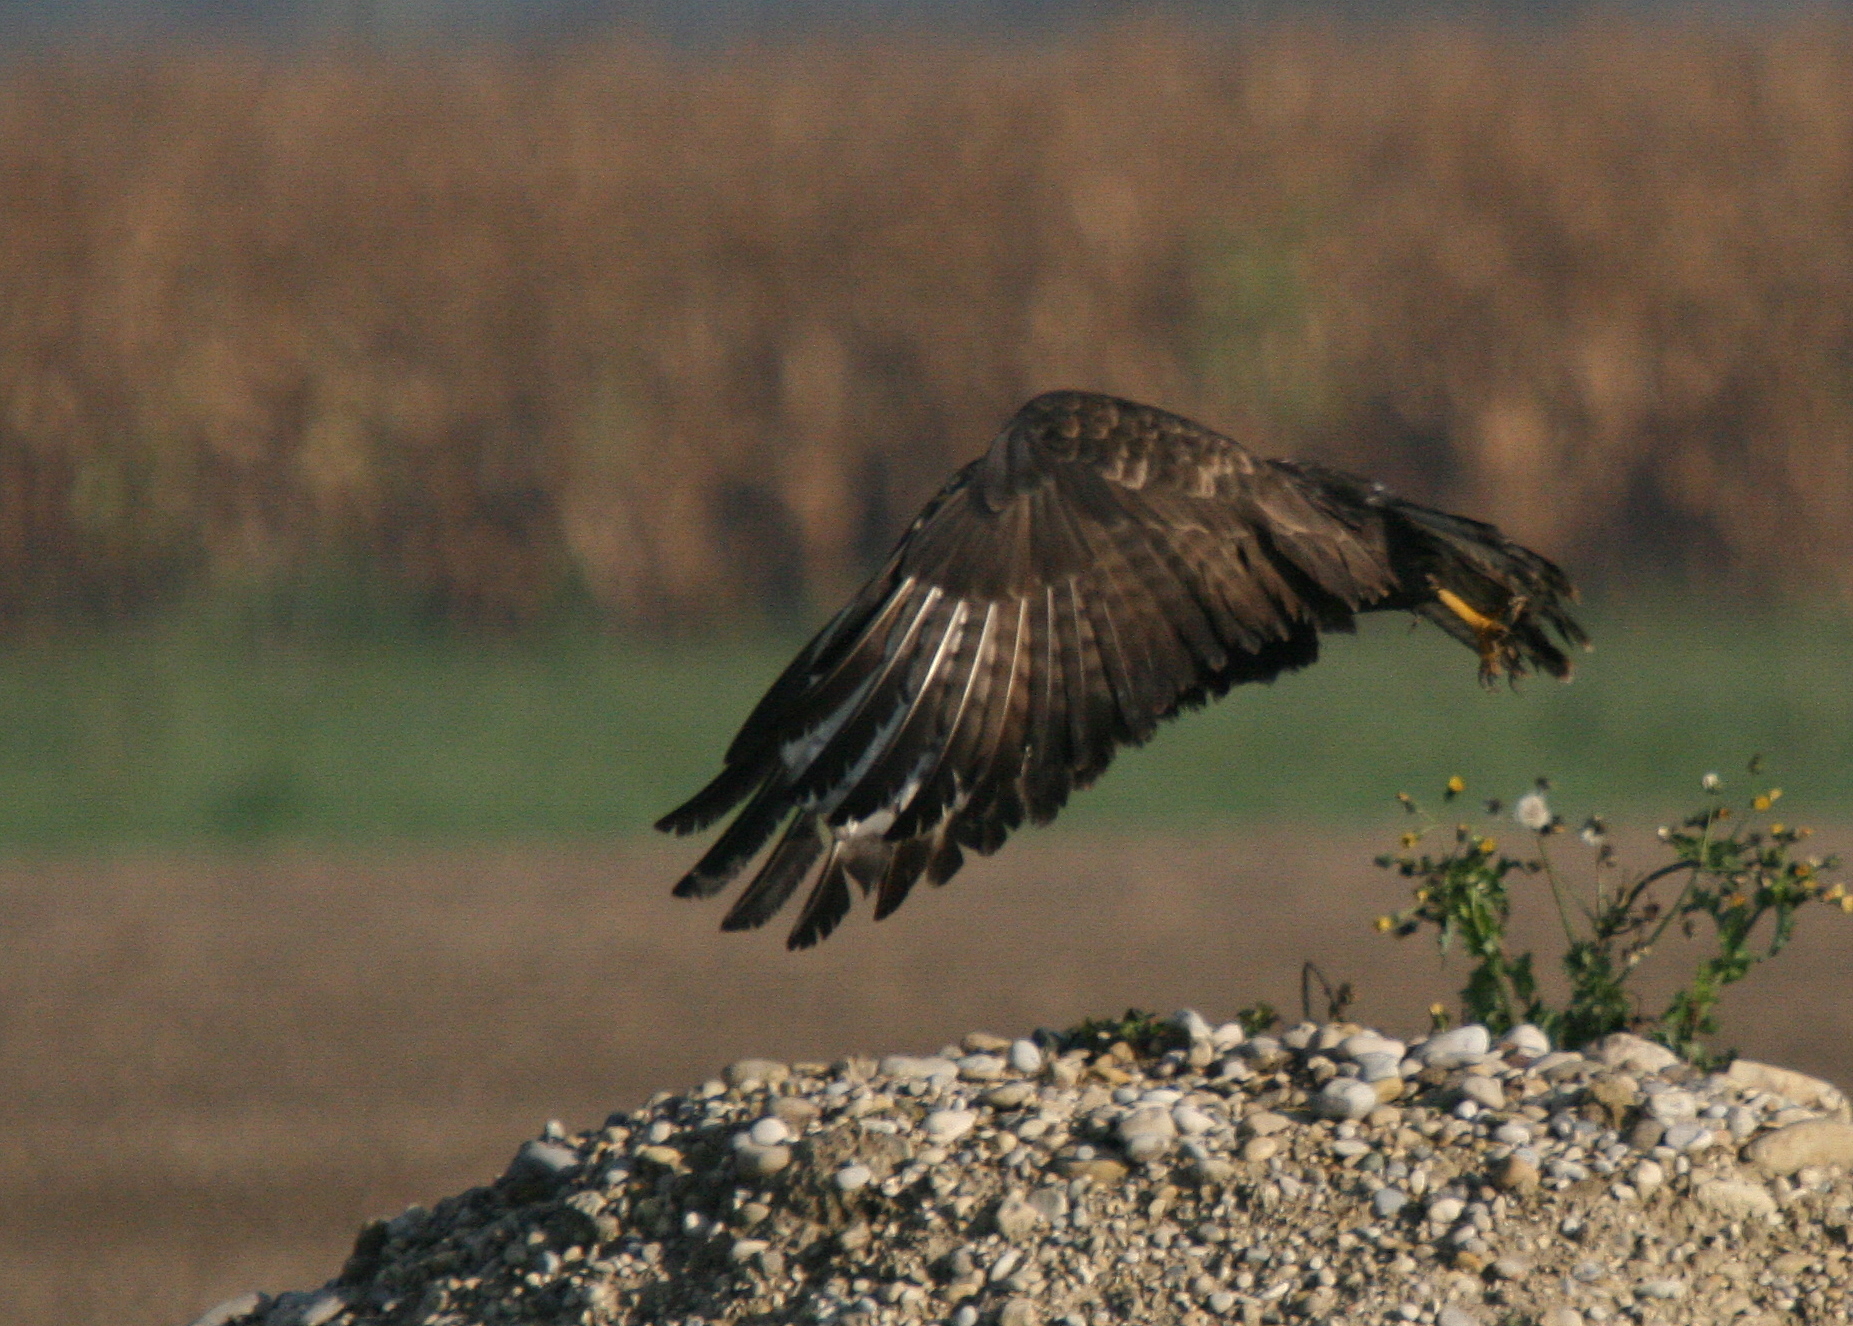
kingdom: Animalia
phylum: Chordata
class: Aves
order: Accipitriformes
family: Accipitridae
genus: Buteo
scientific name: Buteo buteo
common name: Common buzzard
